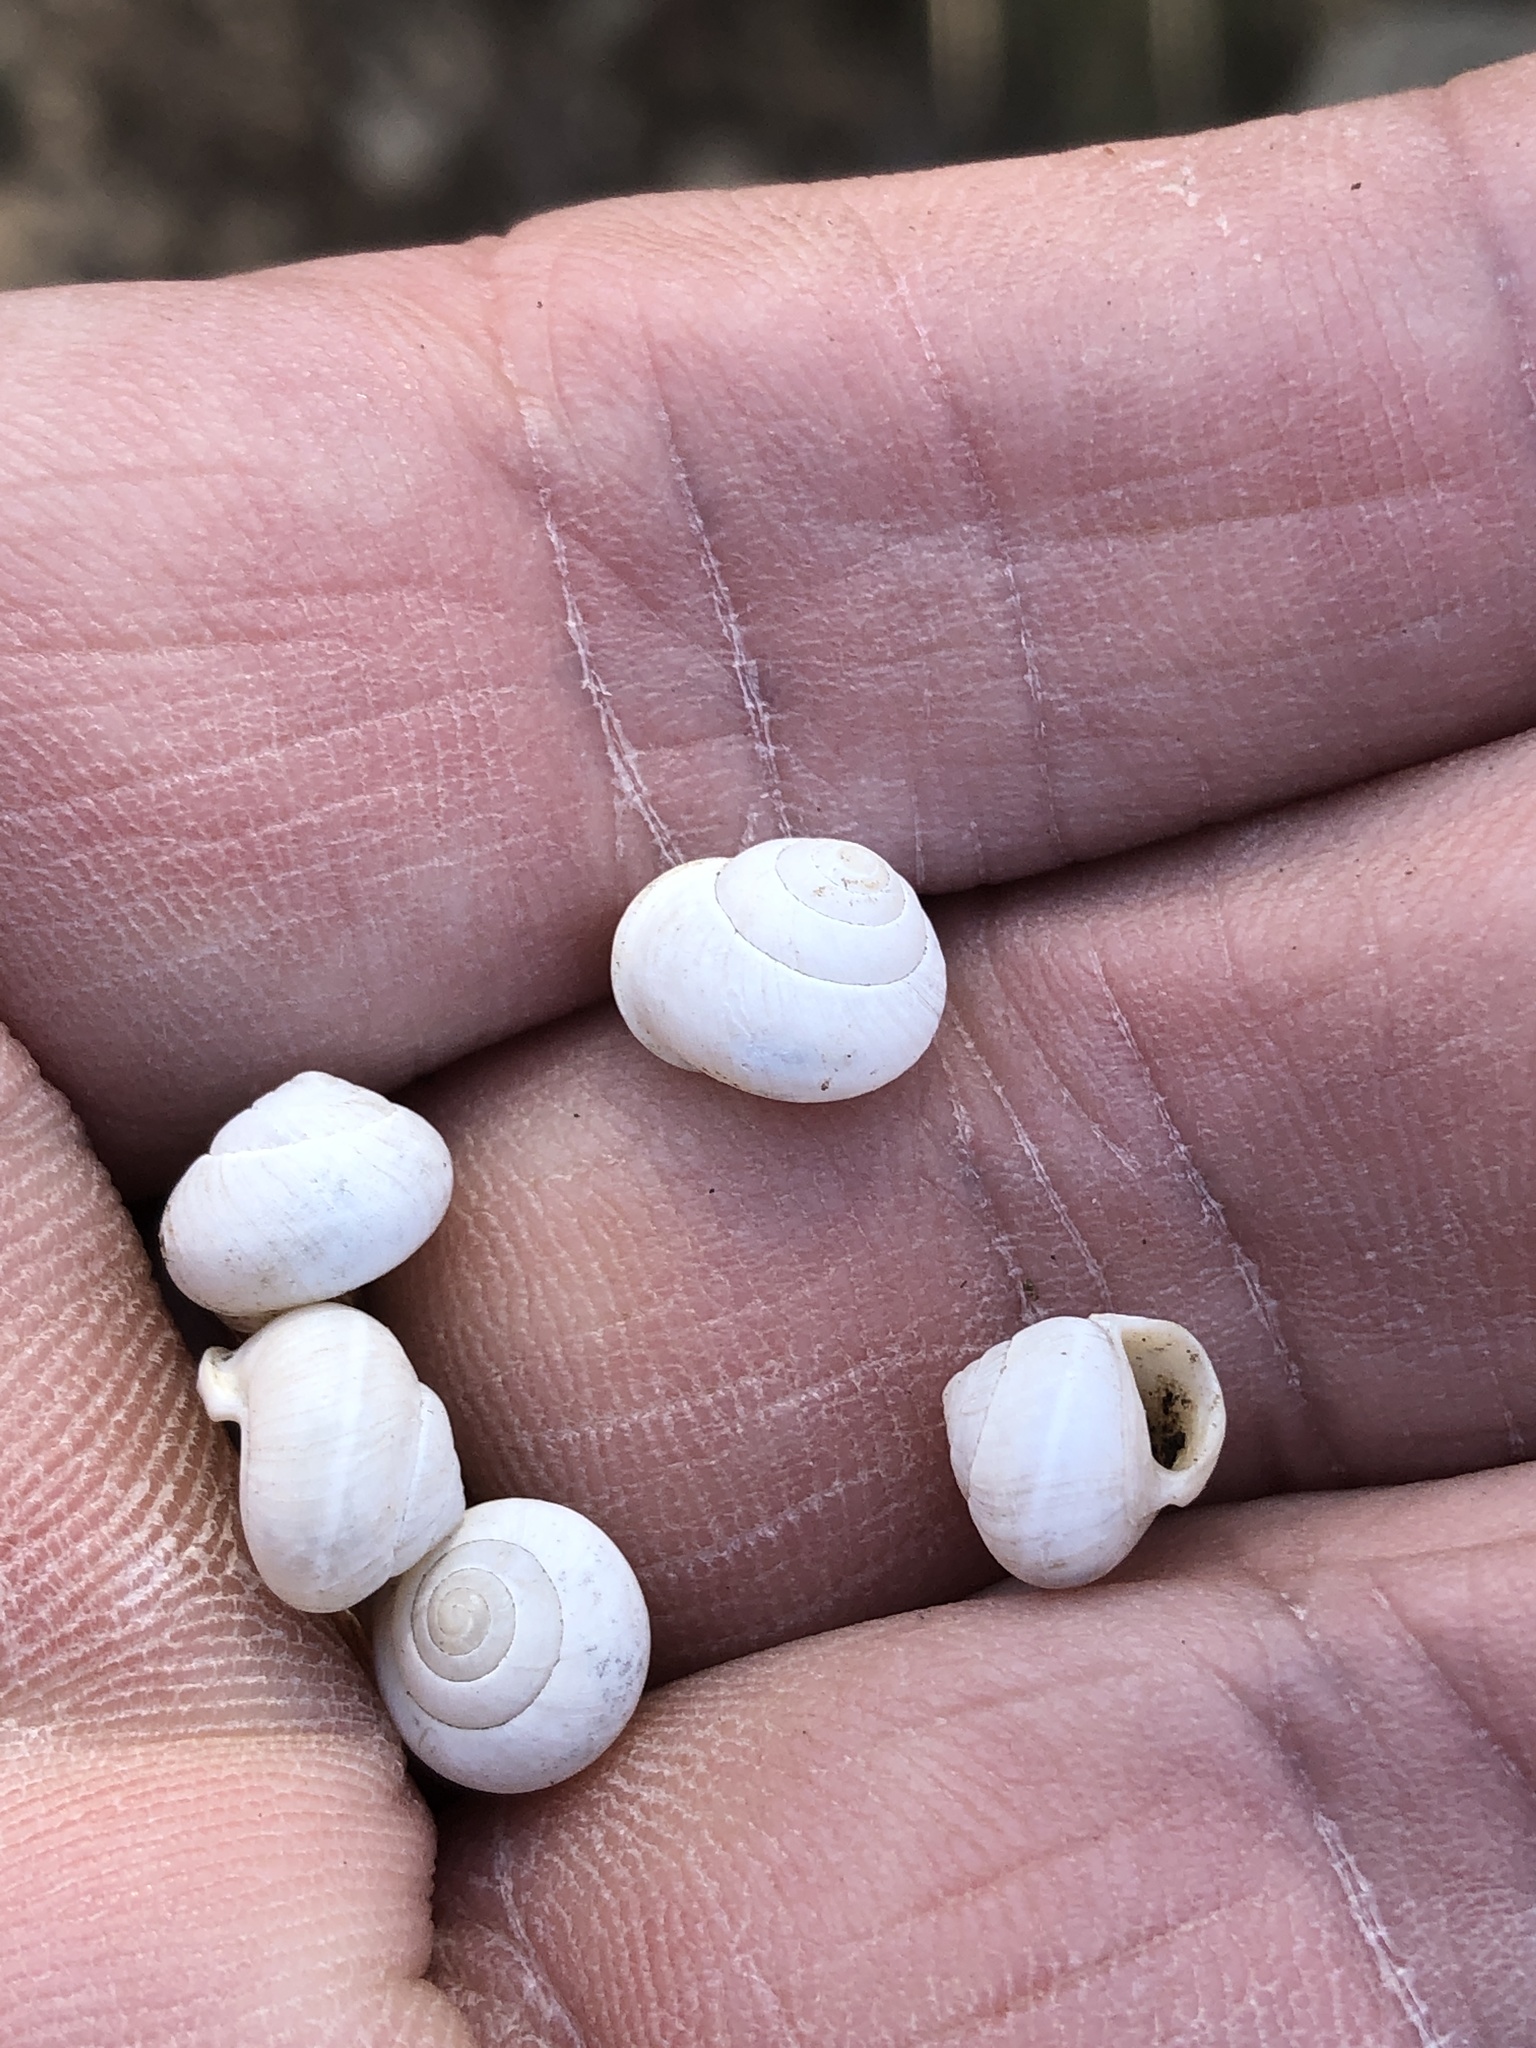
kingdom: Animalia
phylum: Mollusca
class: Gastropoda
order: Cycloneritida
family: Helicinidae
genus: Helicina
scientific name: Helicina orbiculata
